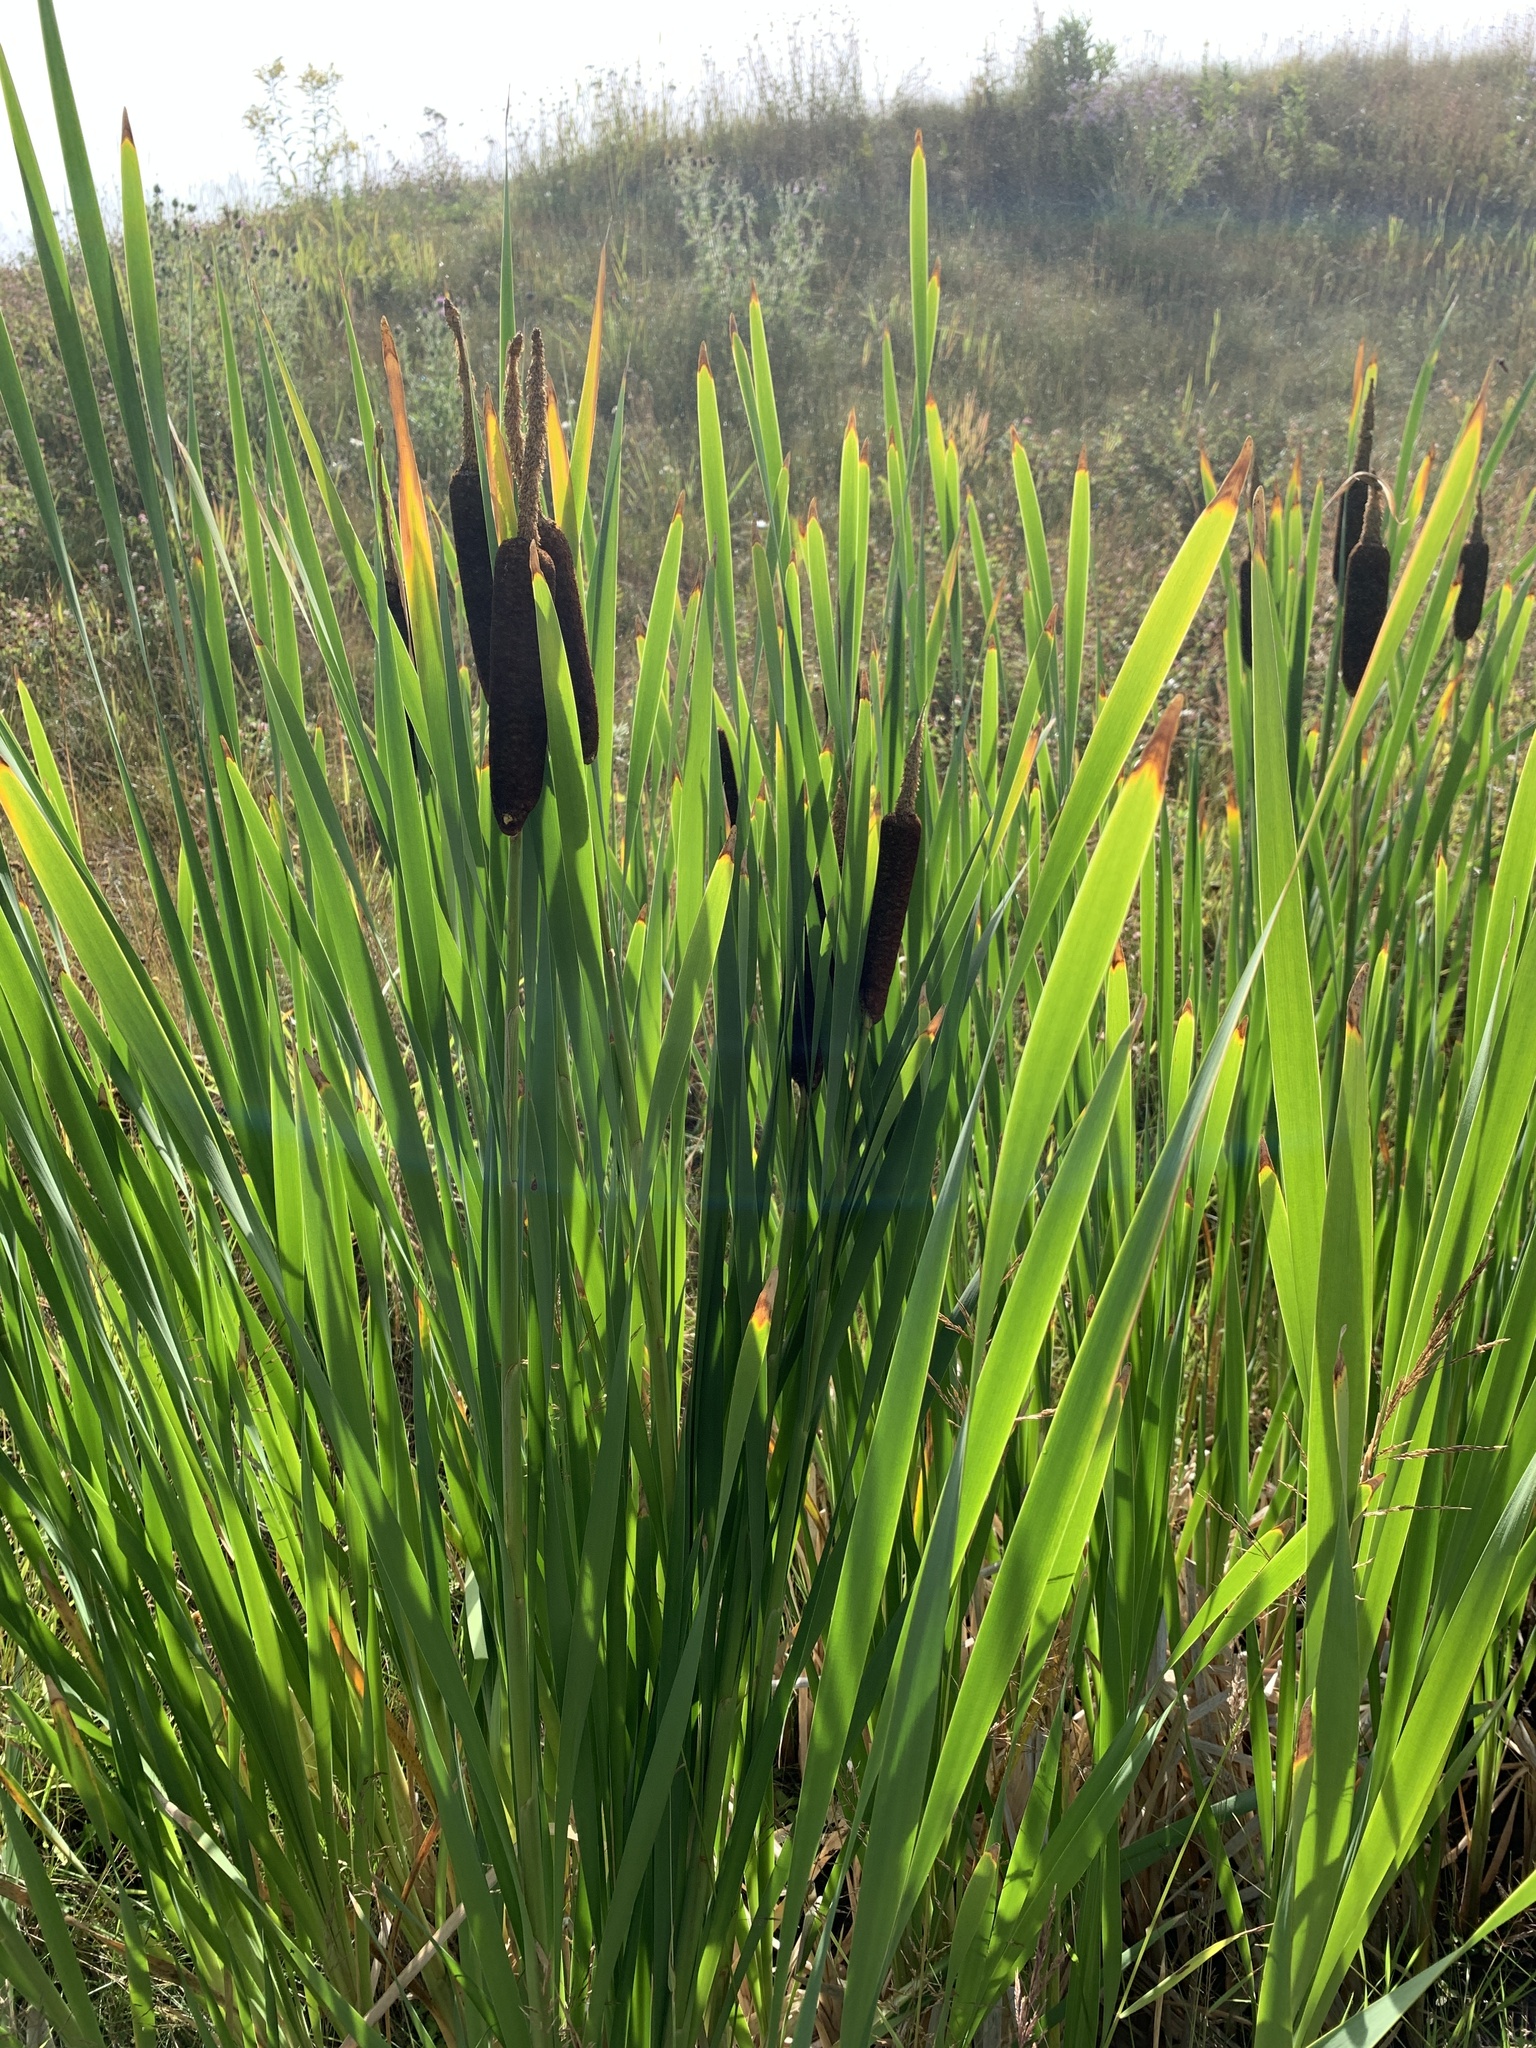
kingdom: Plantae
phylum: Tracheophyta
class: Liliopsida
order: Poales
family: Typhaceae
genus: Typha
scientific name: Typha latifolia
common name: Broadleaf cattail
